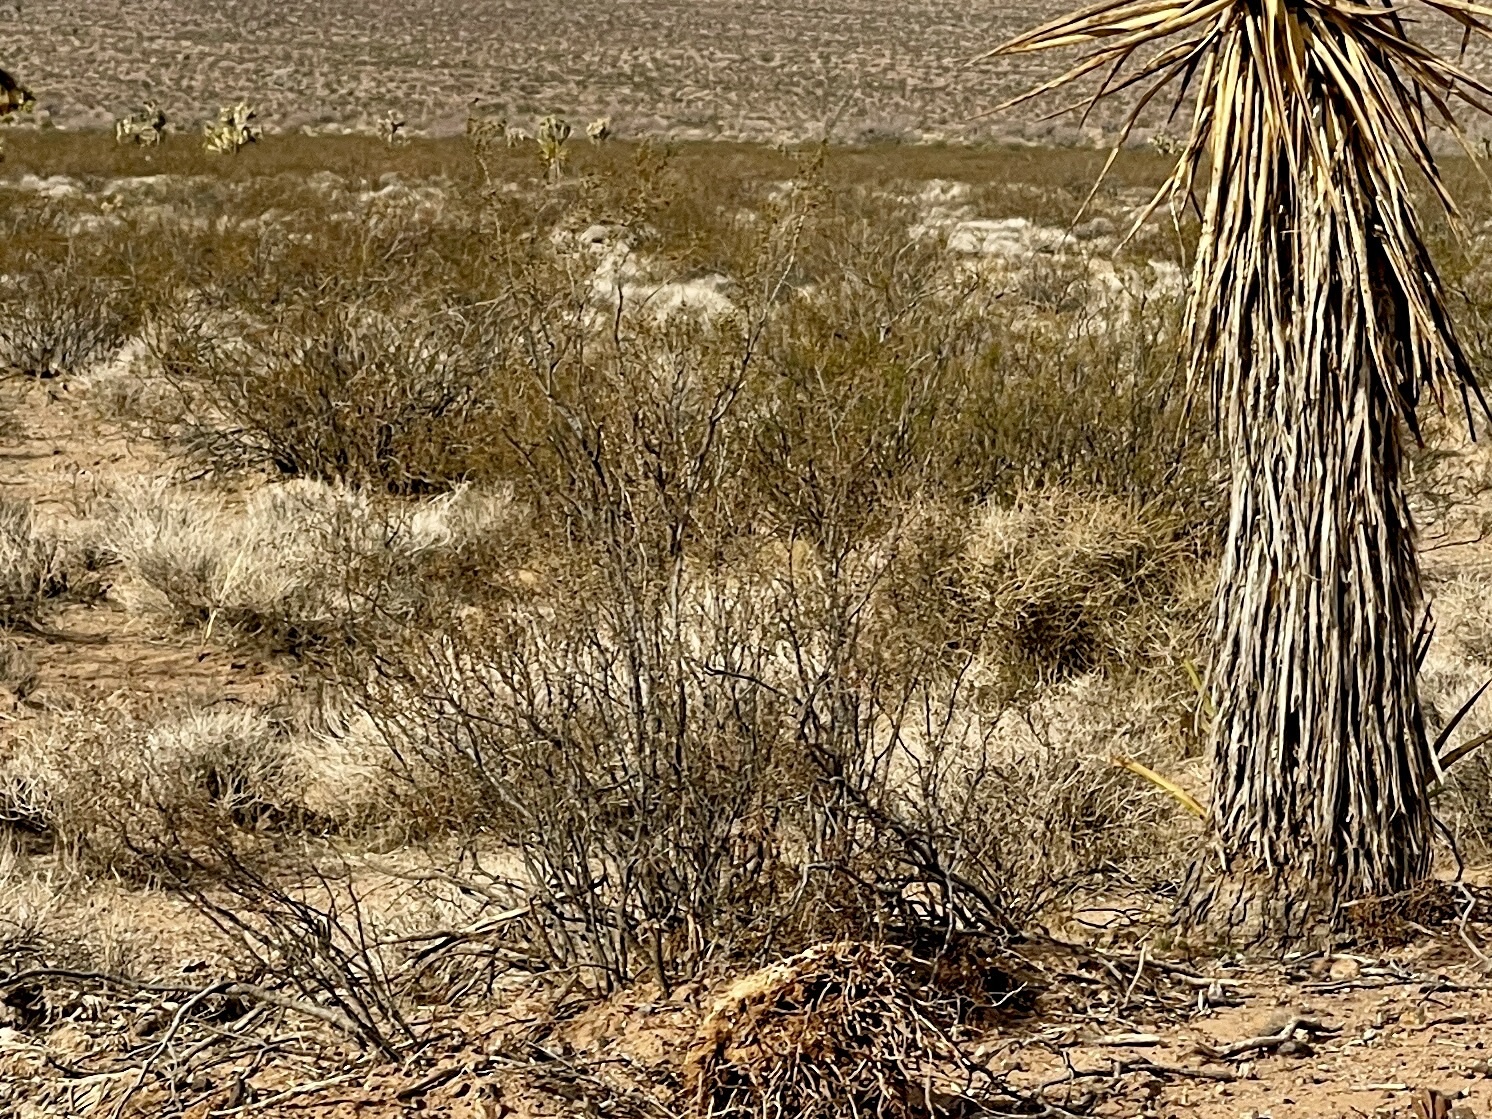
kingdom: Plantae
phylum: Tracheophyta
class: Magnoliopsida
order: Zygophyllales
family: Zygophyllaceae
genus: Larrea
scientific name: Larrea tridentata
